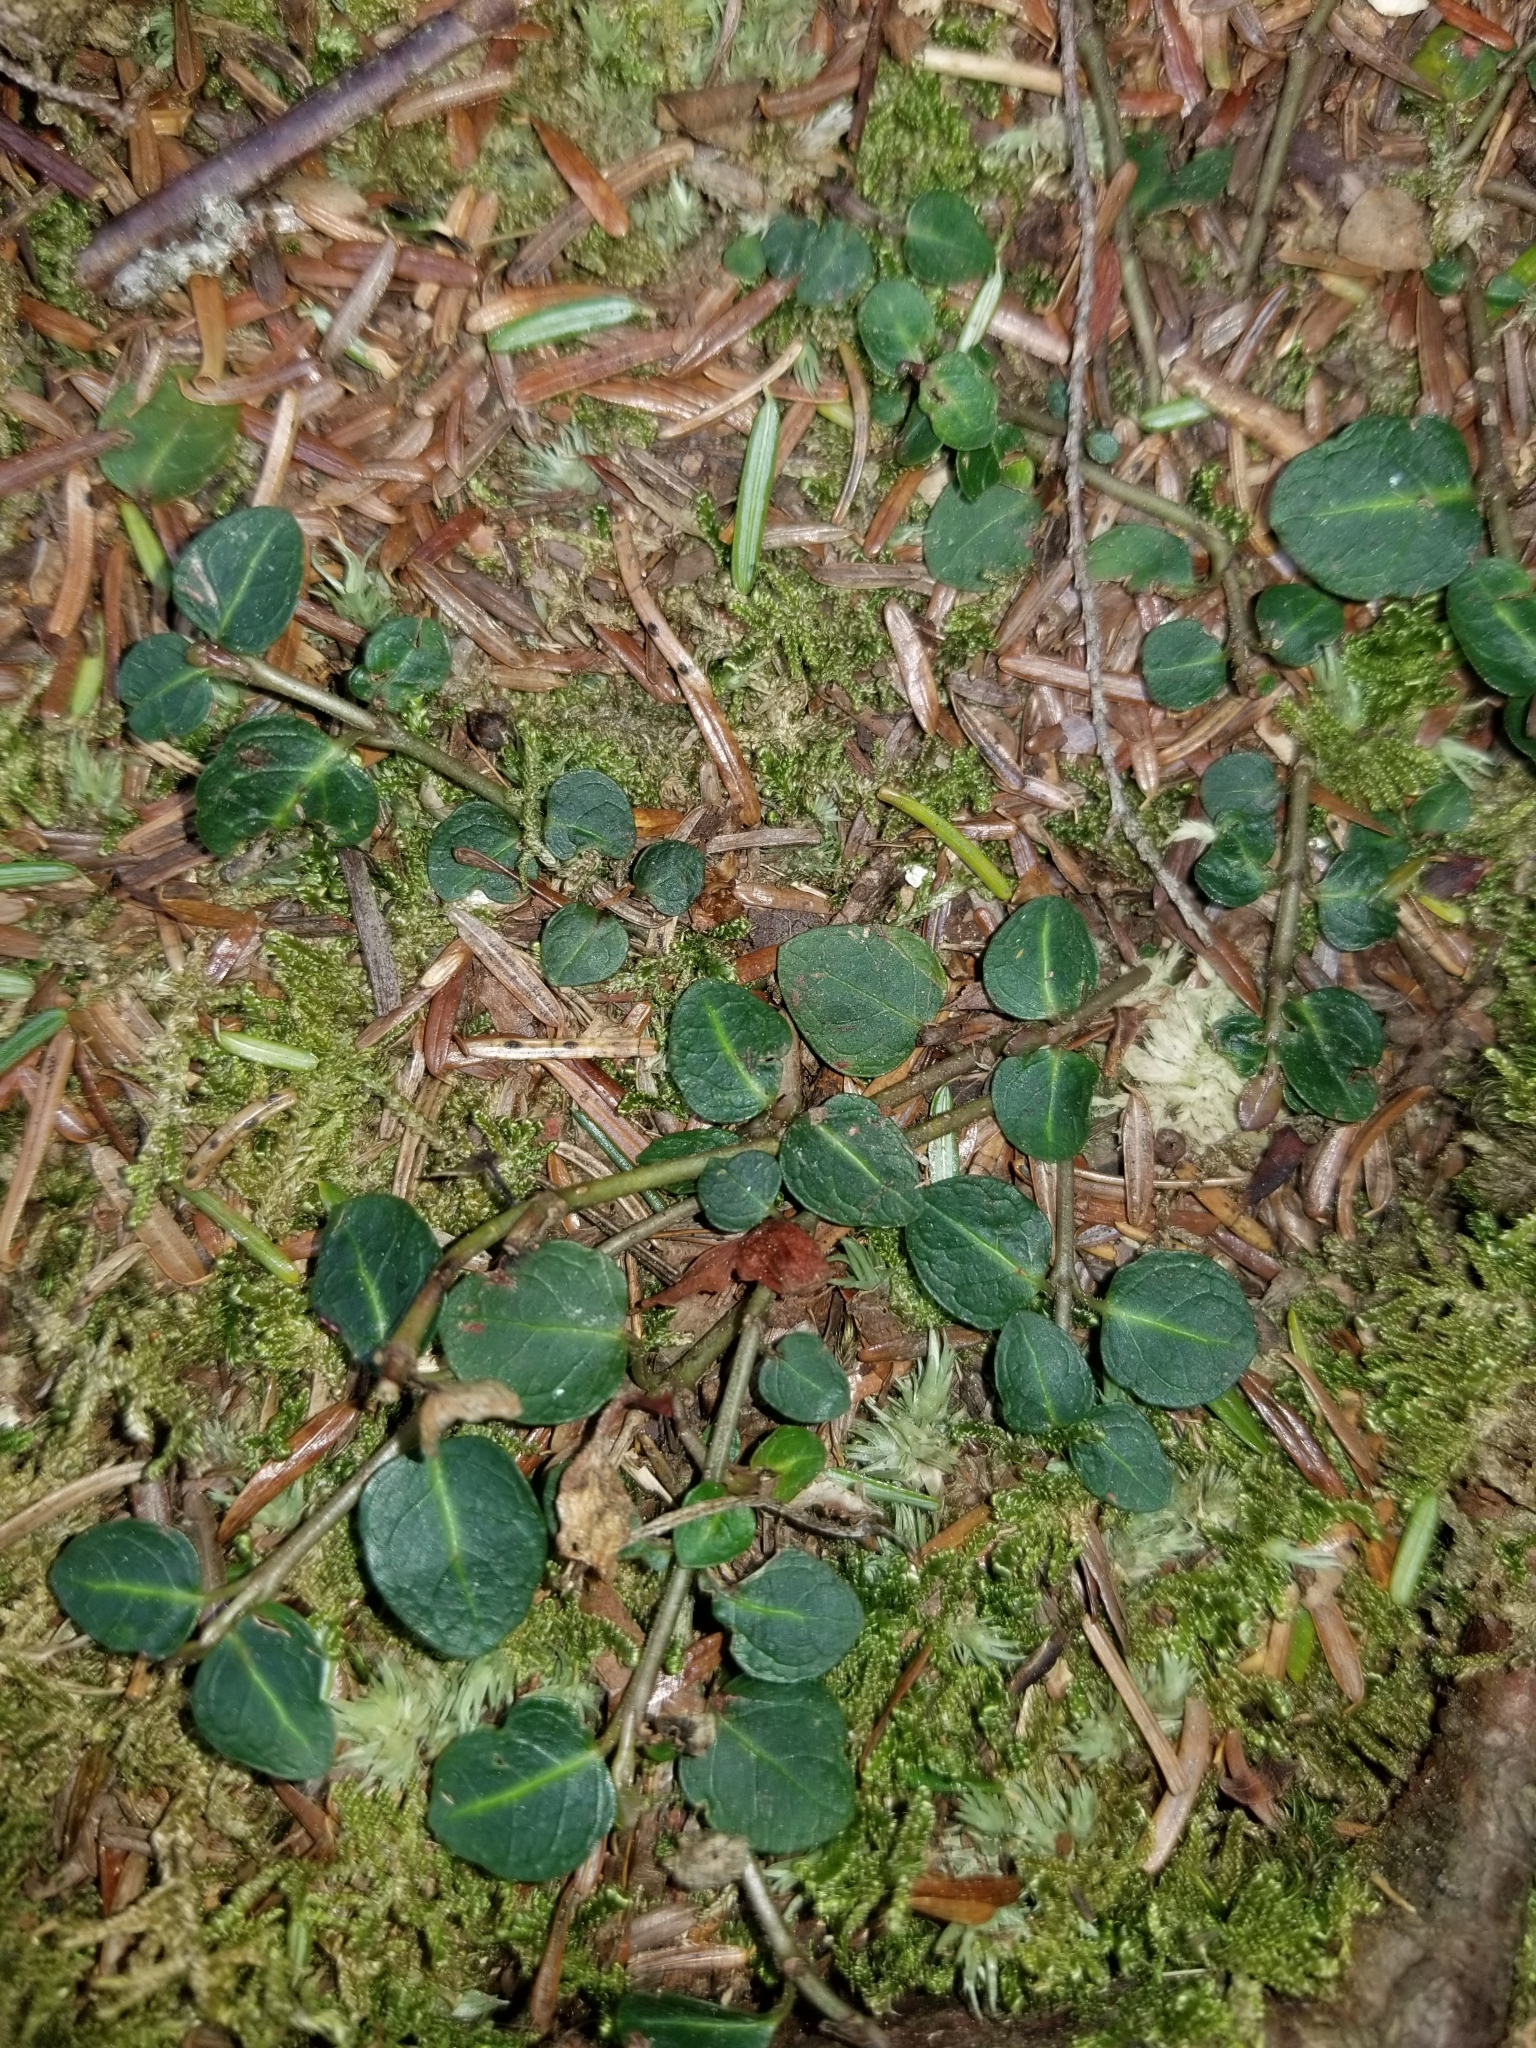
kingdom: Plantae
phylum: Tracheophyta
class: Magnoliopsida
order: Gentianales
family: Rubiaceae
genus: Mitchella
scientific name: Mitchella repens
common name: Partridge-berry
